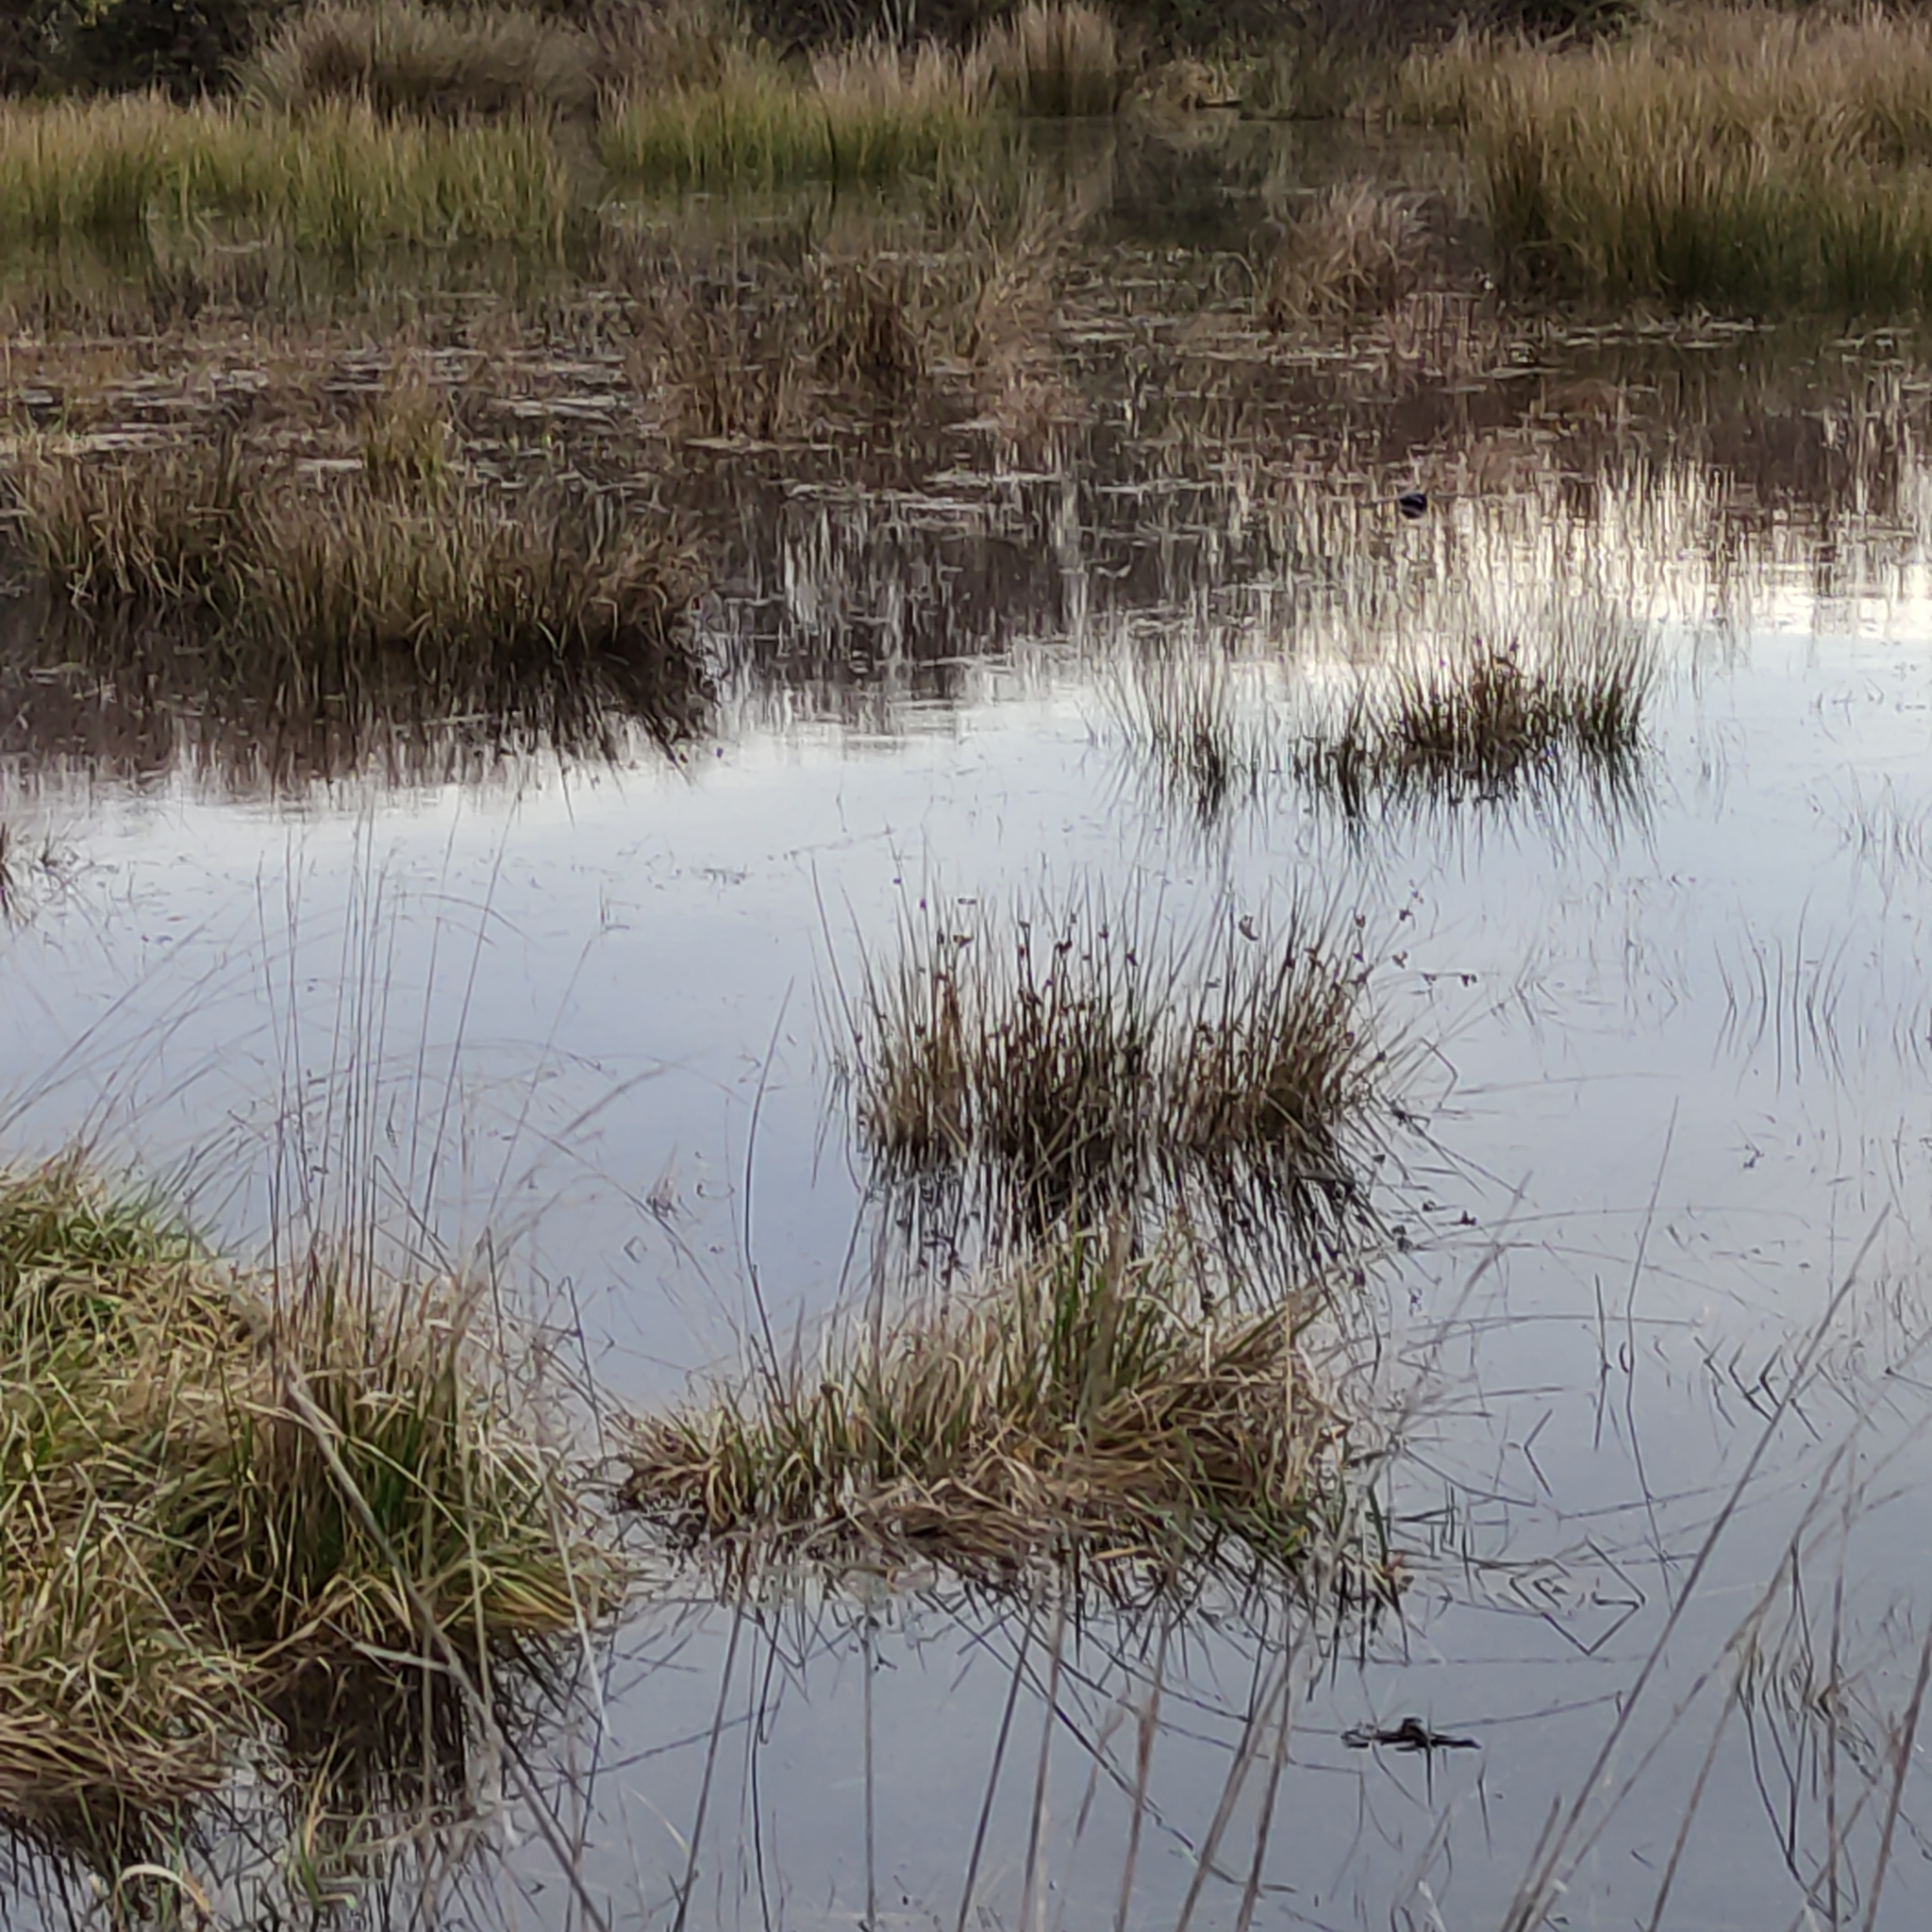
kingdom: Animalia
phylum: Chordata
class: Aves
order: Passeriformes
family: Hirundinidae
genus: Hirundo
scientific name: Hirundo neoxena
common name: Welcome swallow
